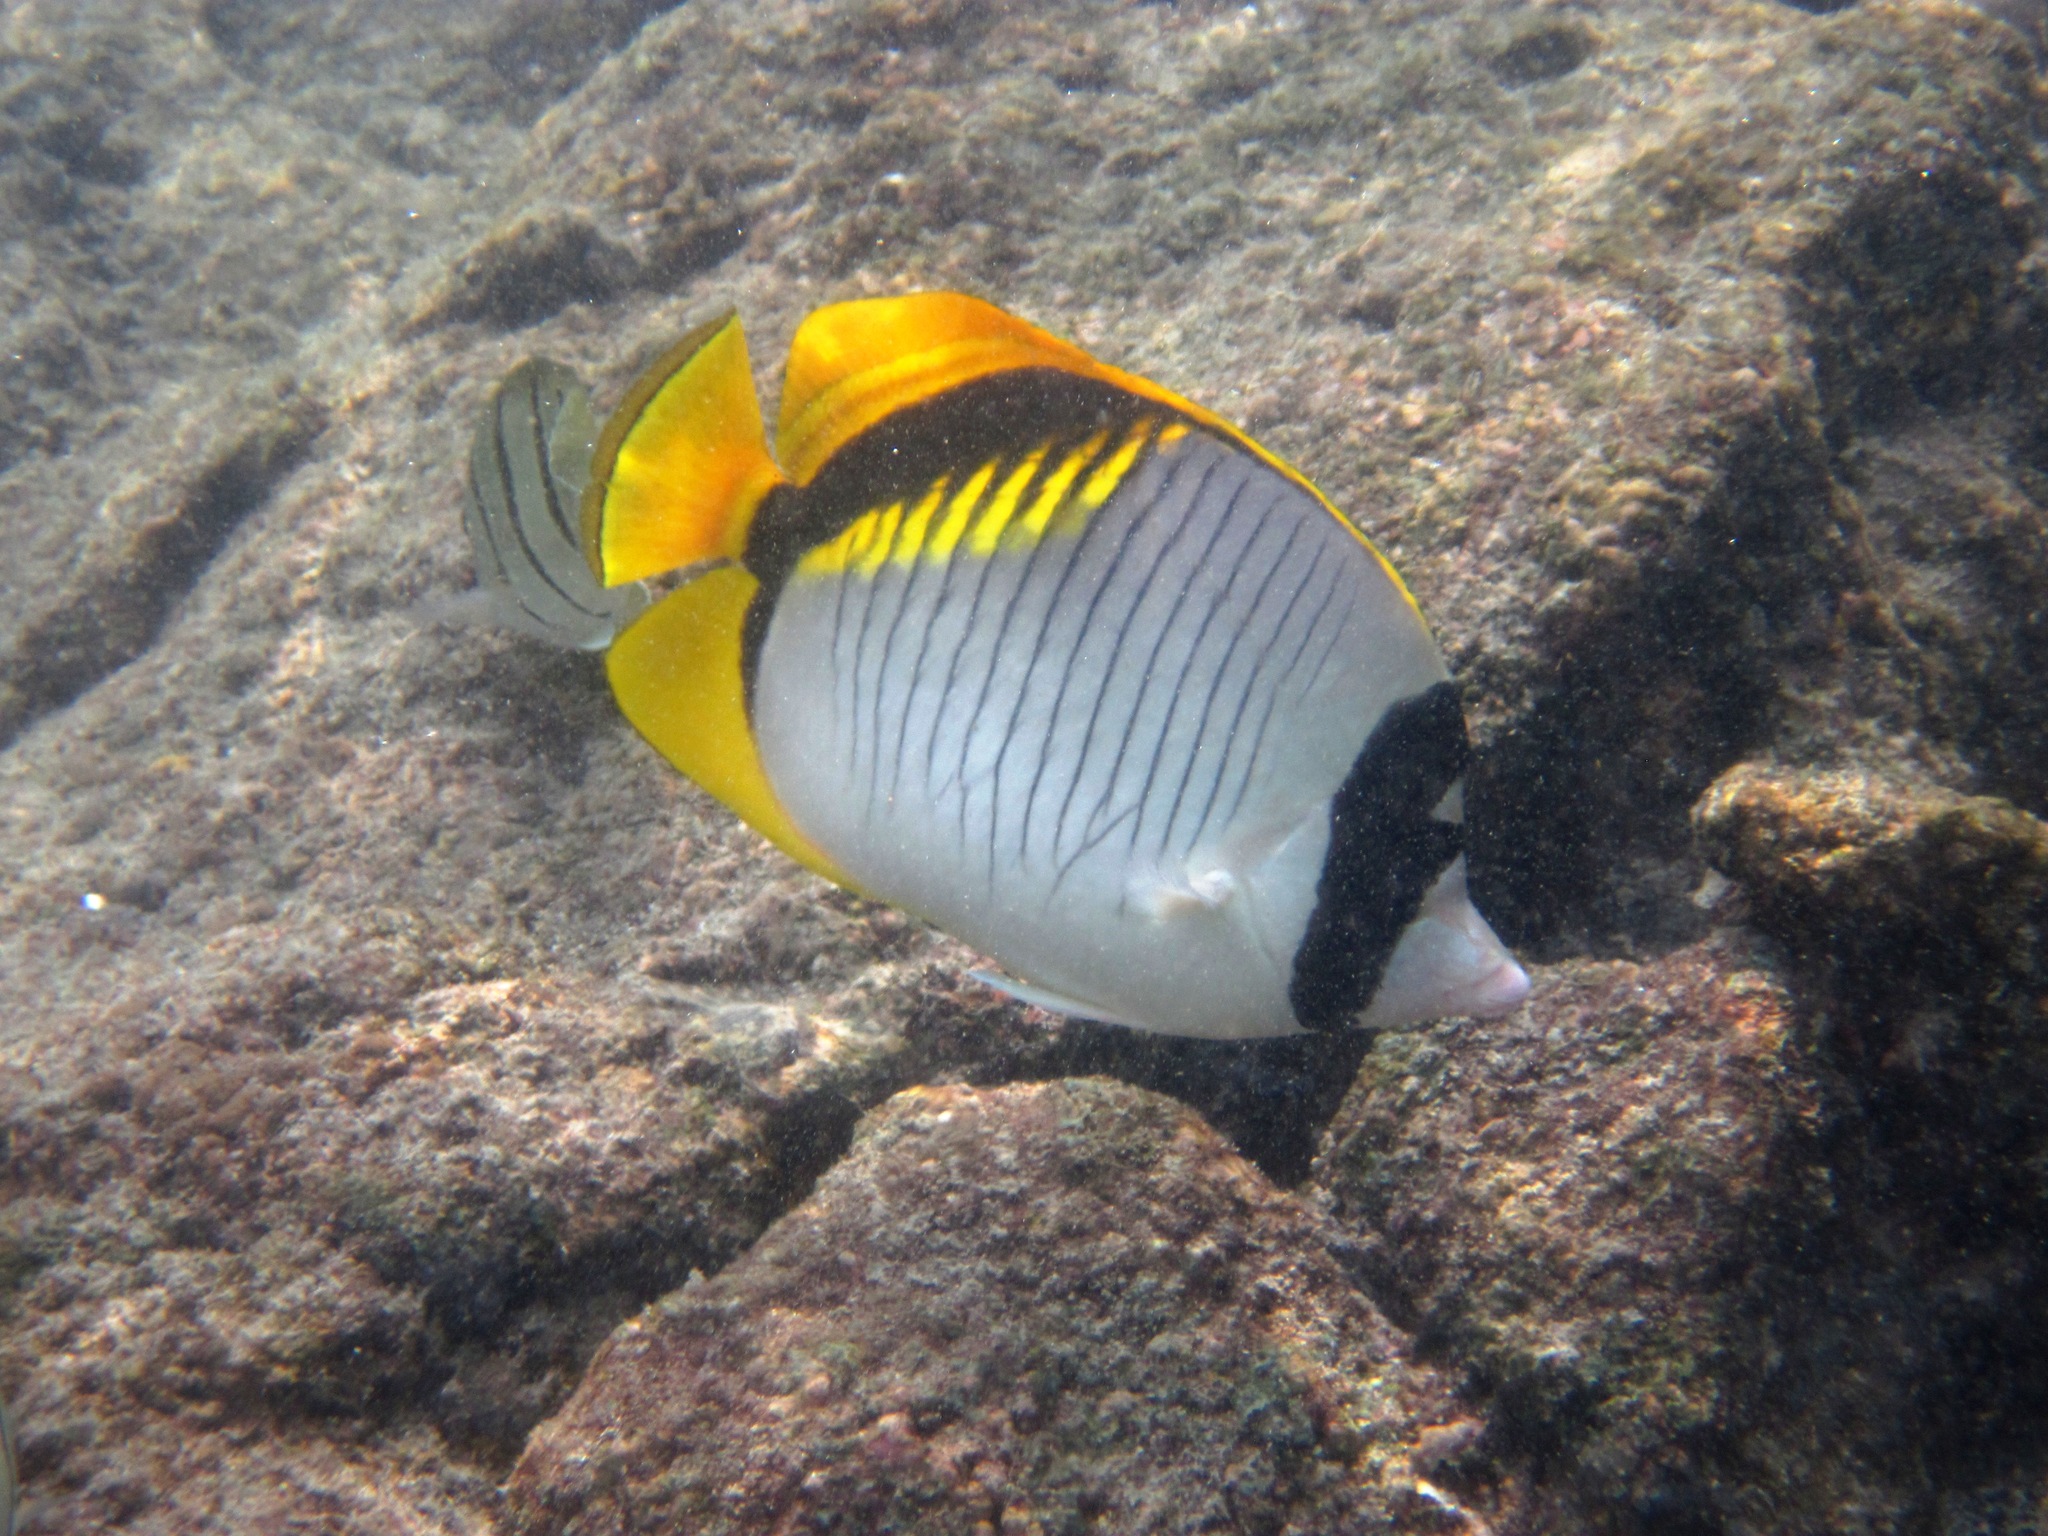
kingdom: Animalia
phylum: Chordata
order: Perciformes
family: Chaetodontidae
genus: Chaetodon
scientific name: Chaetodon lineolatus
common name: Lined butterflyfish
